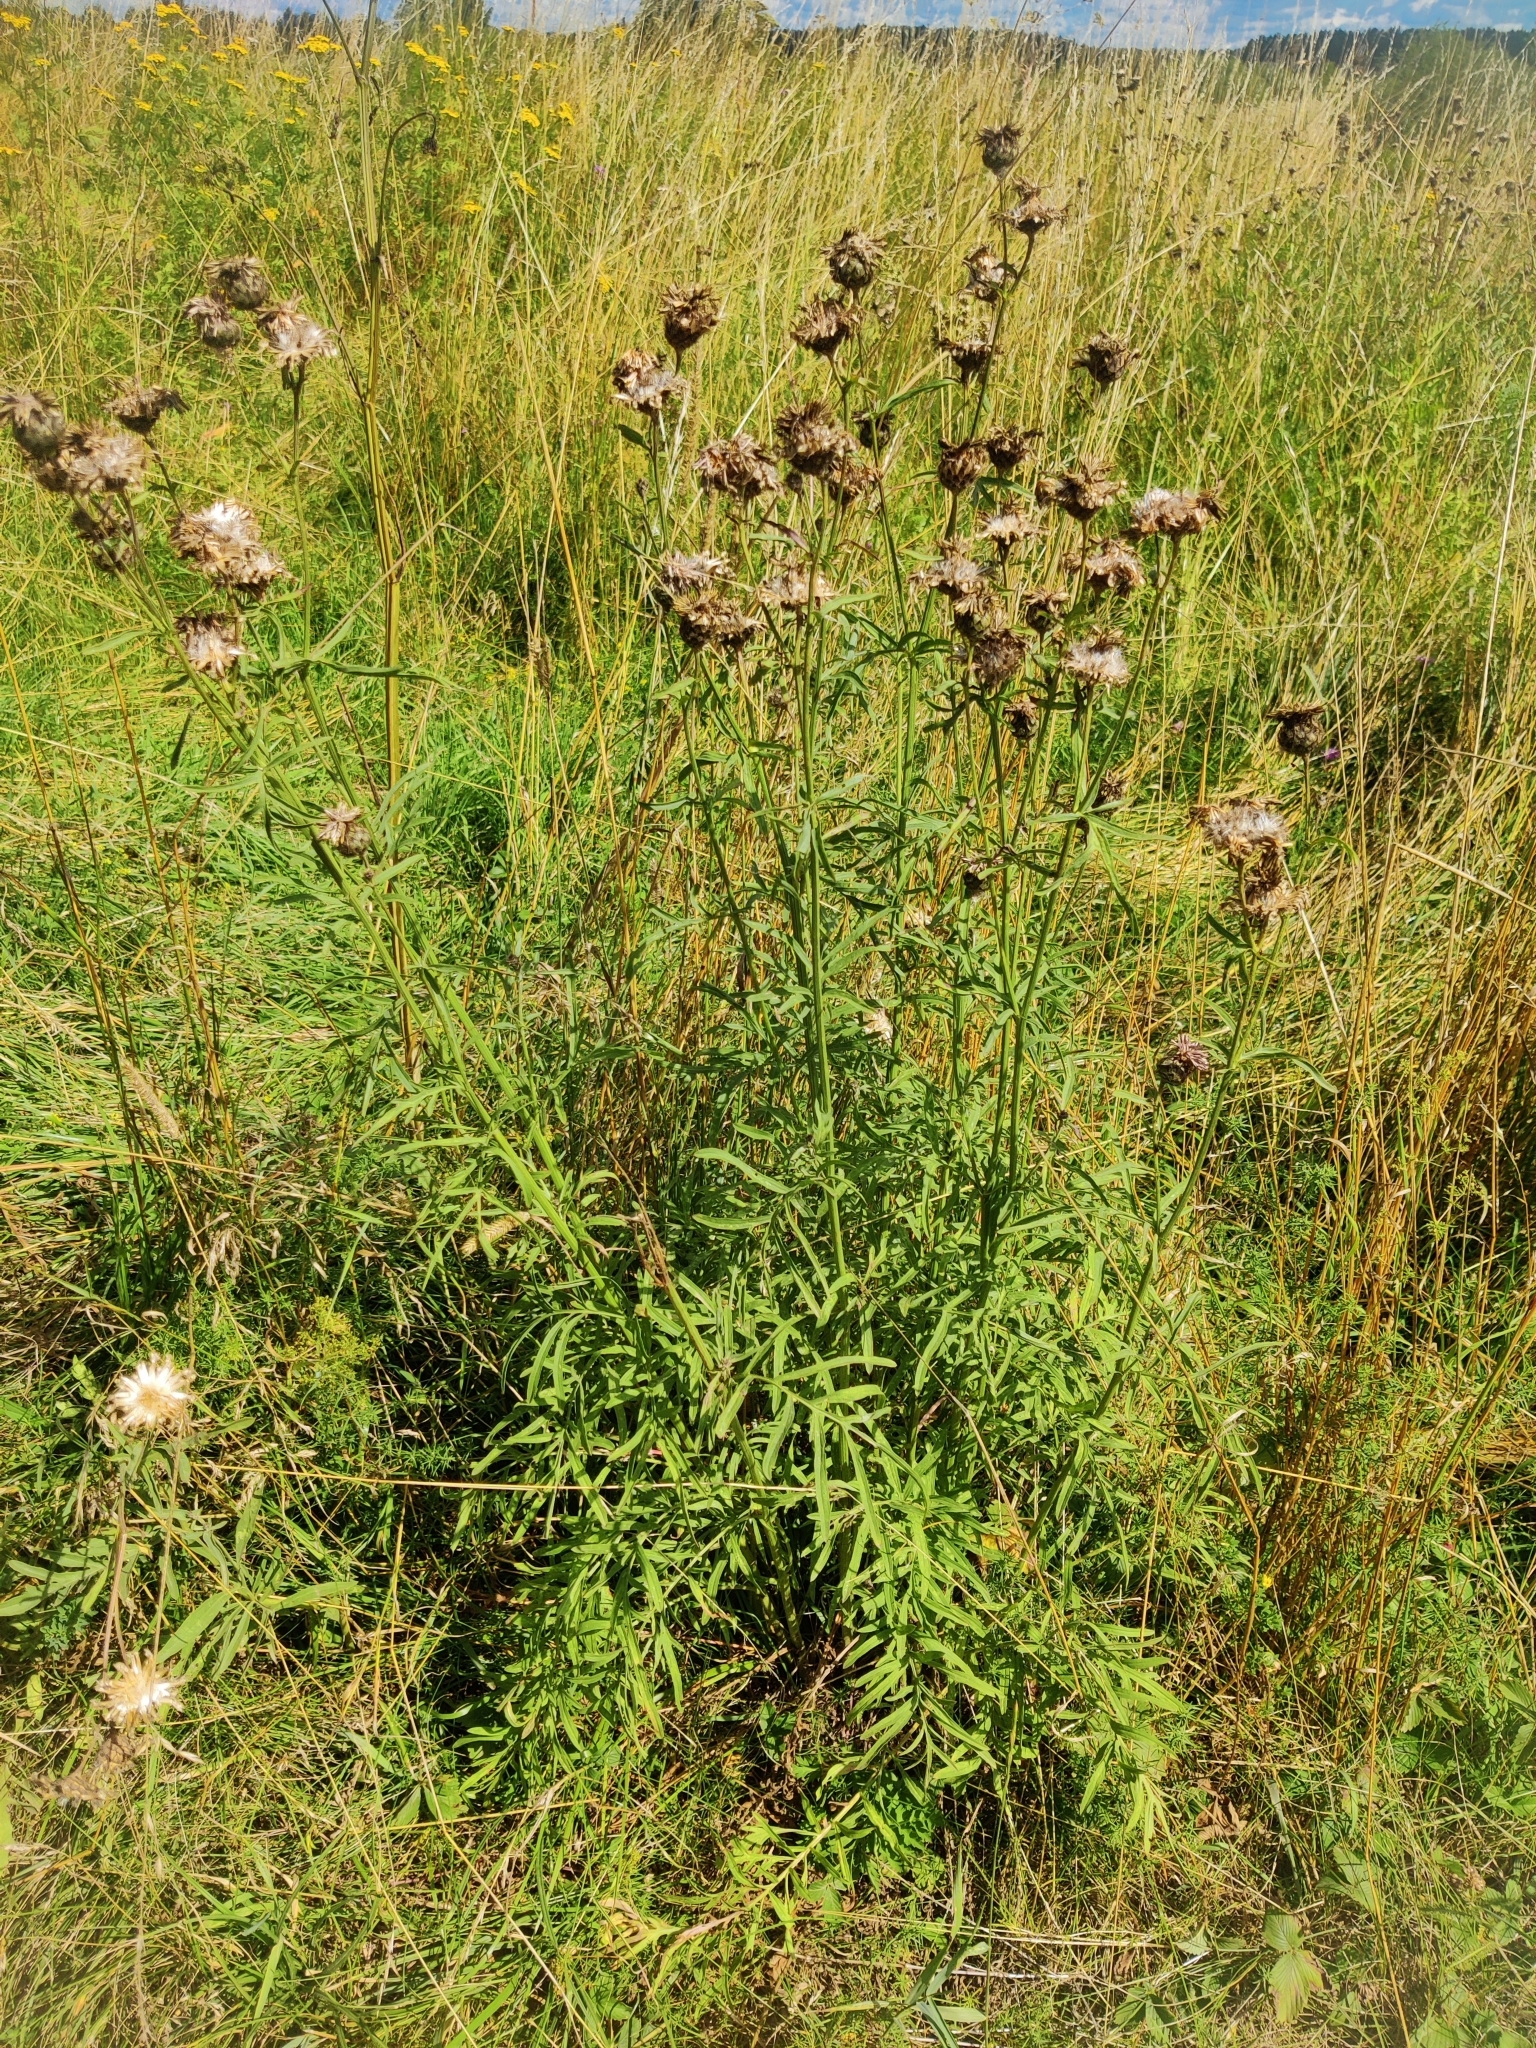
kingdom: Plantae
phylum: Tracheophyta
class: Magnoliopsida
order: Asterales
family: Asteraceae
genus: Centaurea
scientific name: Centaurea scabiosa
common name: Greater knapweed
